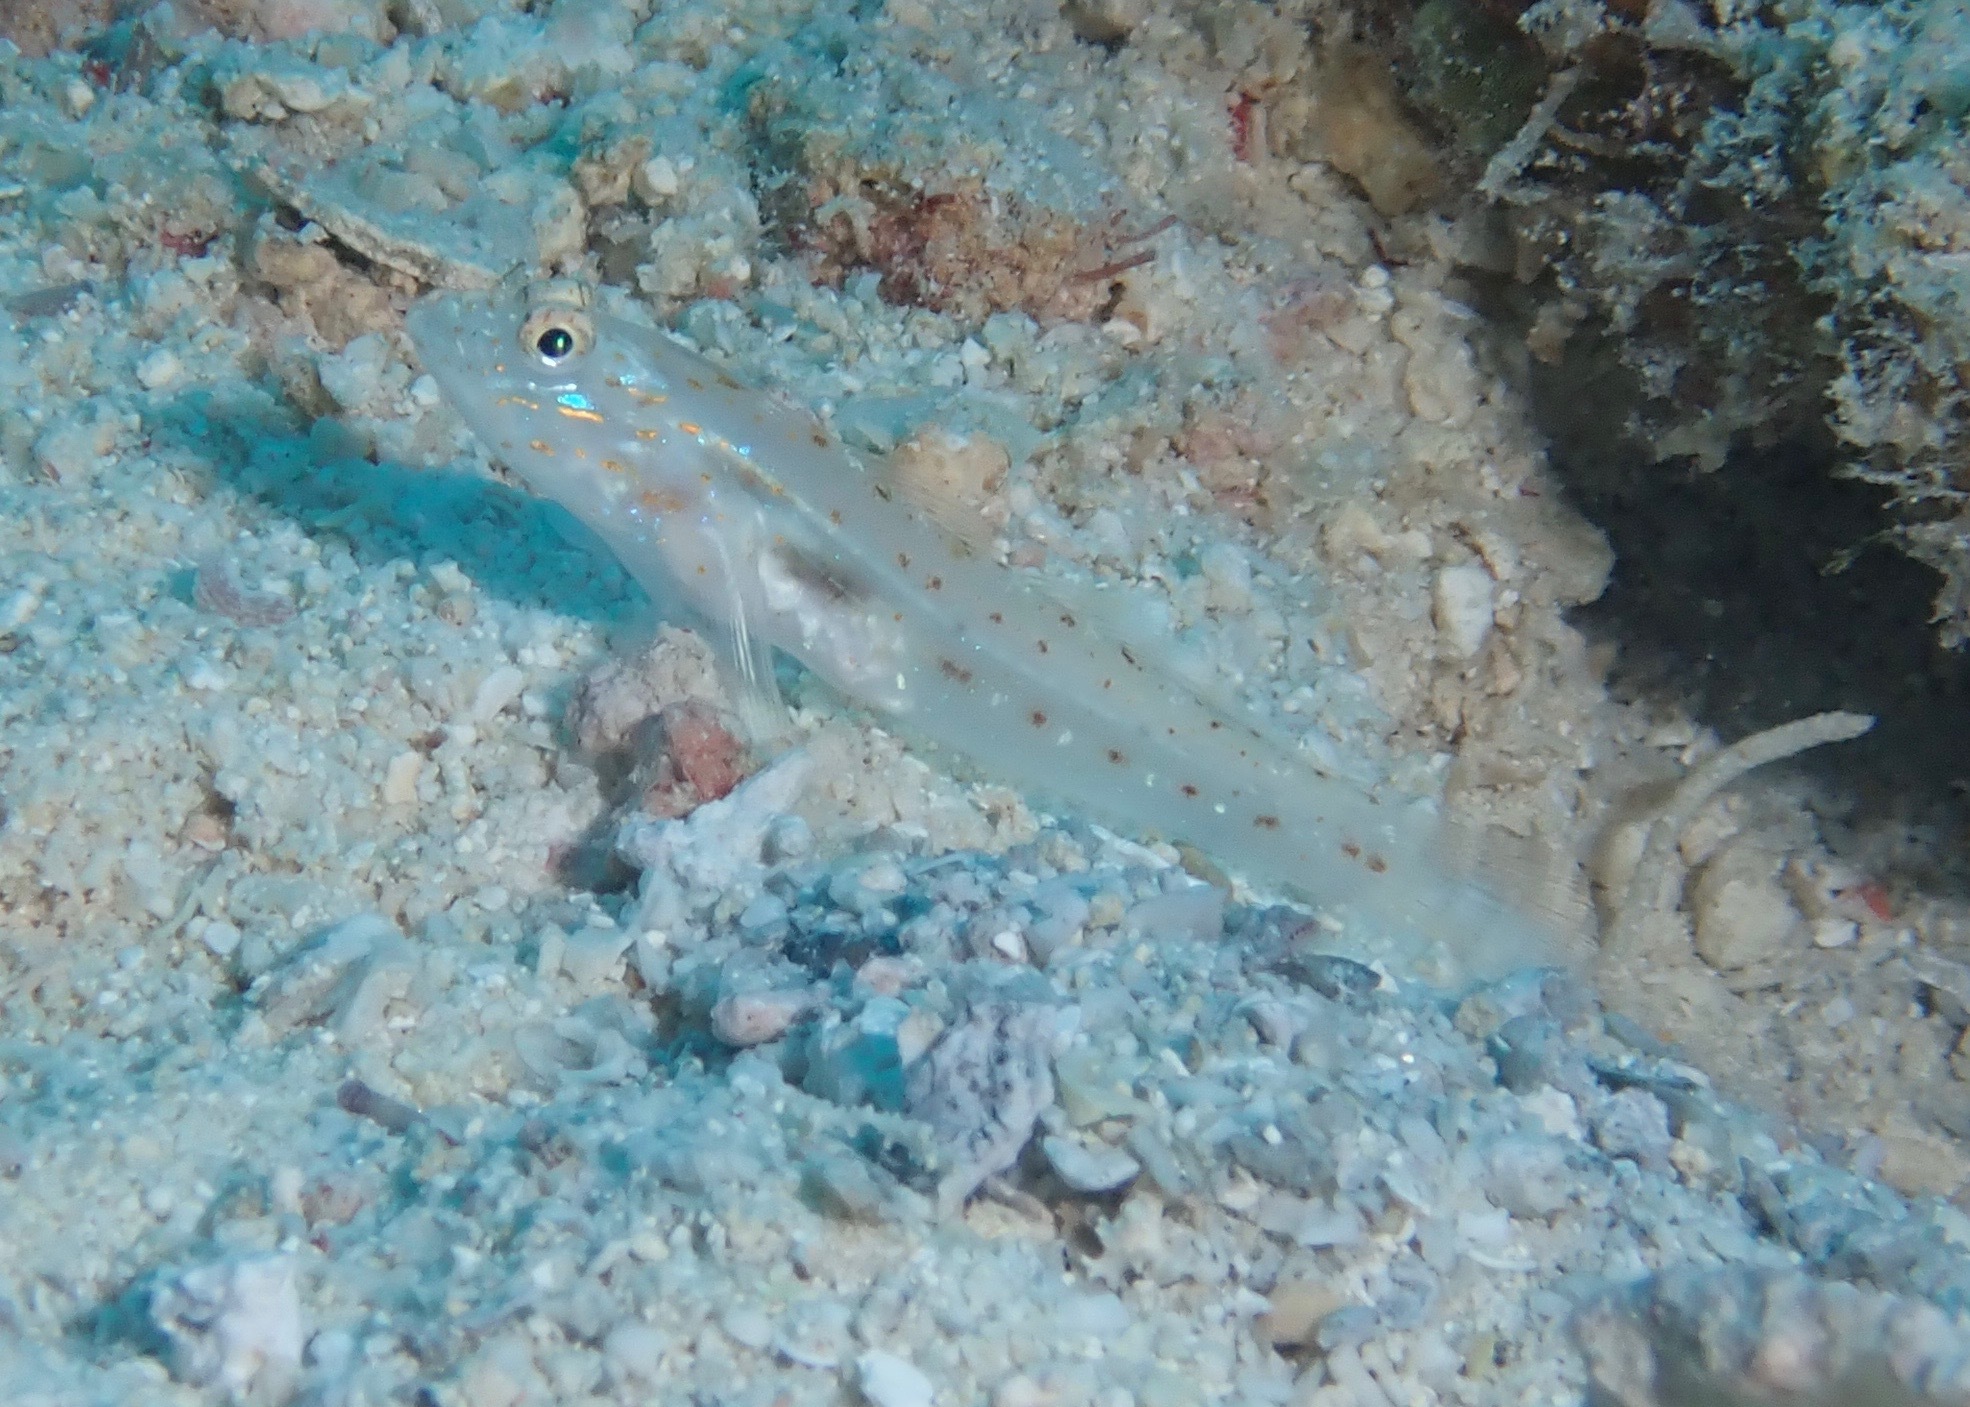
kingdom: Animalia
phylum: Chordata
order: Perciformes
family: Gobiidae
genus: Ctenogobiops
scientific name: Ctenogobiops crocineus
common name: Silverspot shrimpgoby
